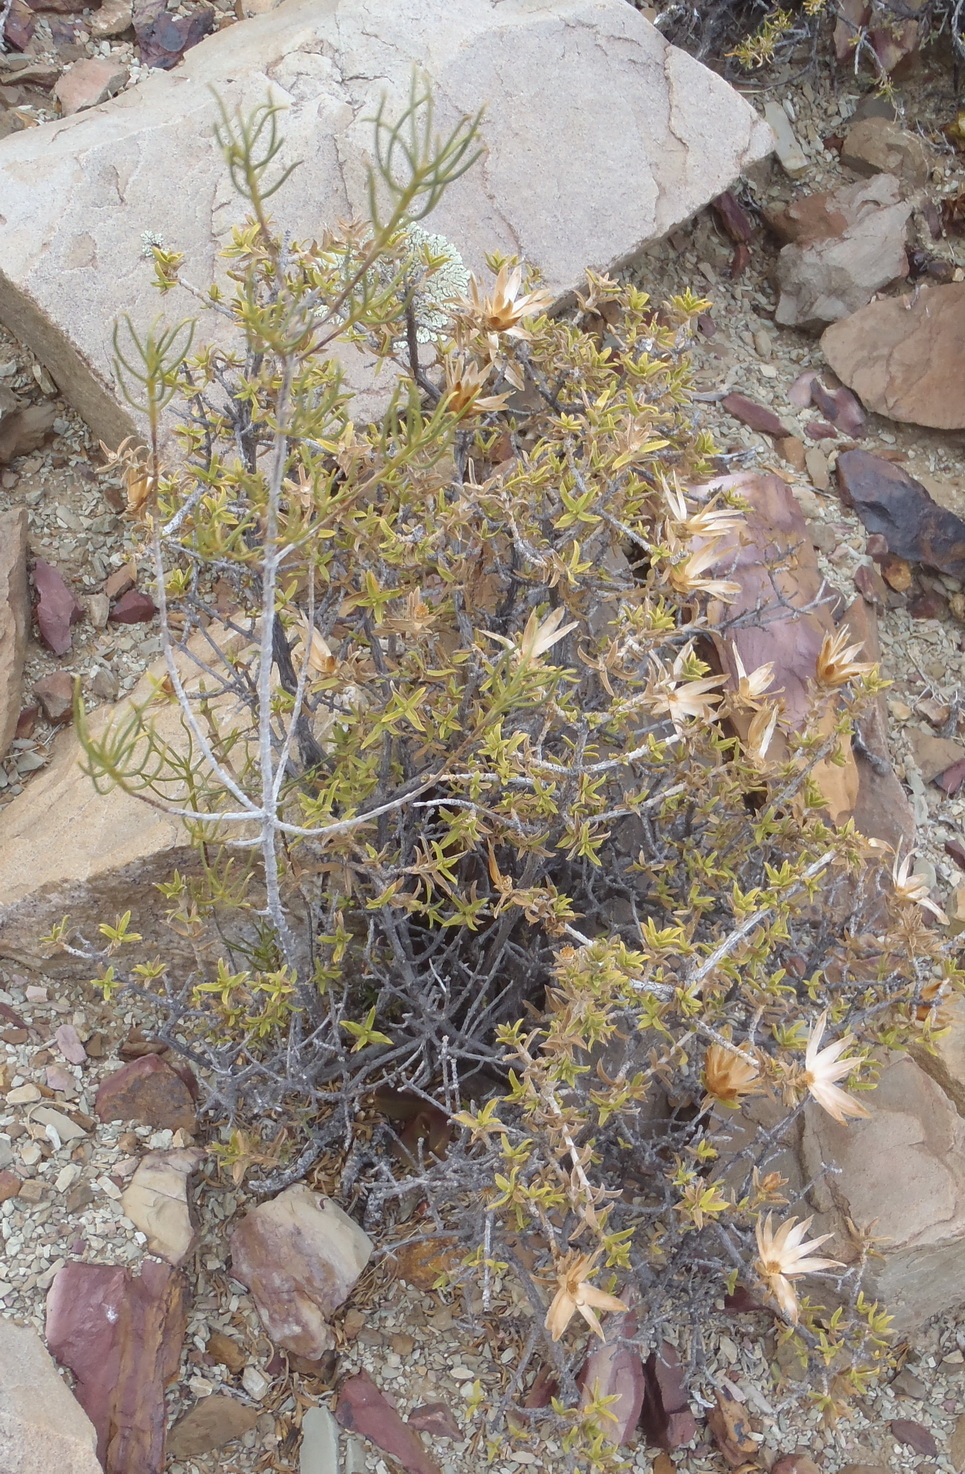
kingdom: Plantae
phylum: Tracheophyta
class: Magnoliopsida
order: Asterales
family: Asteraceae
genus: Macledium
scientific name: Macledium relhanioides
